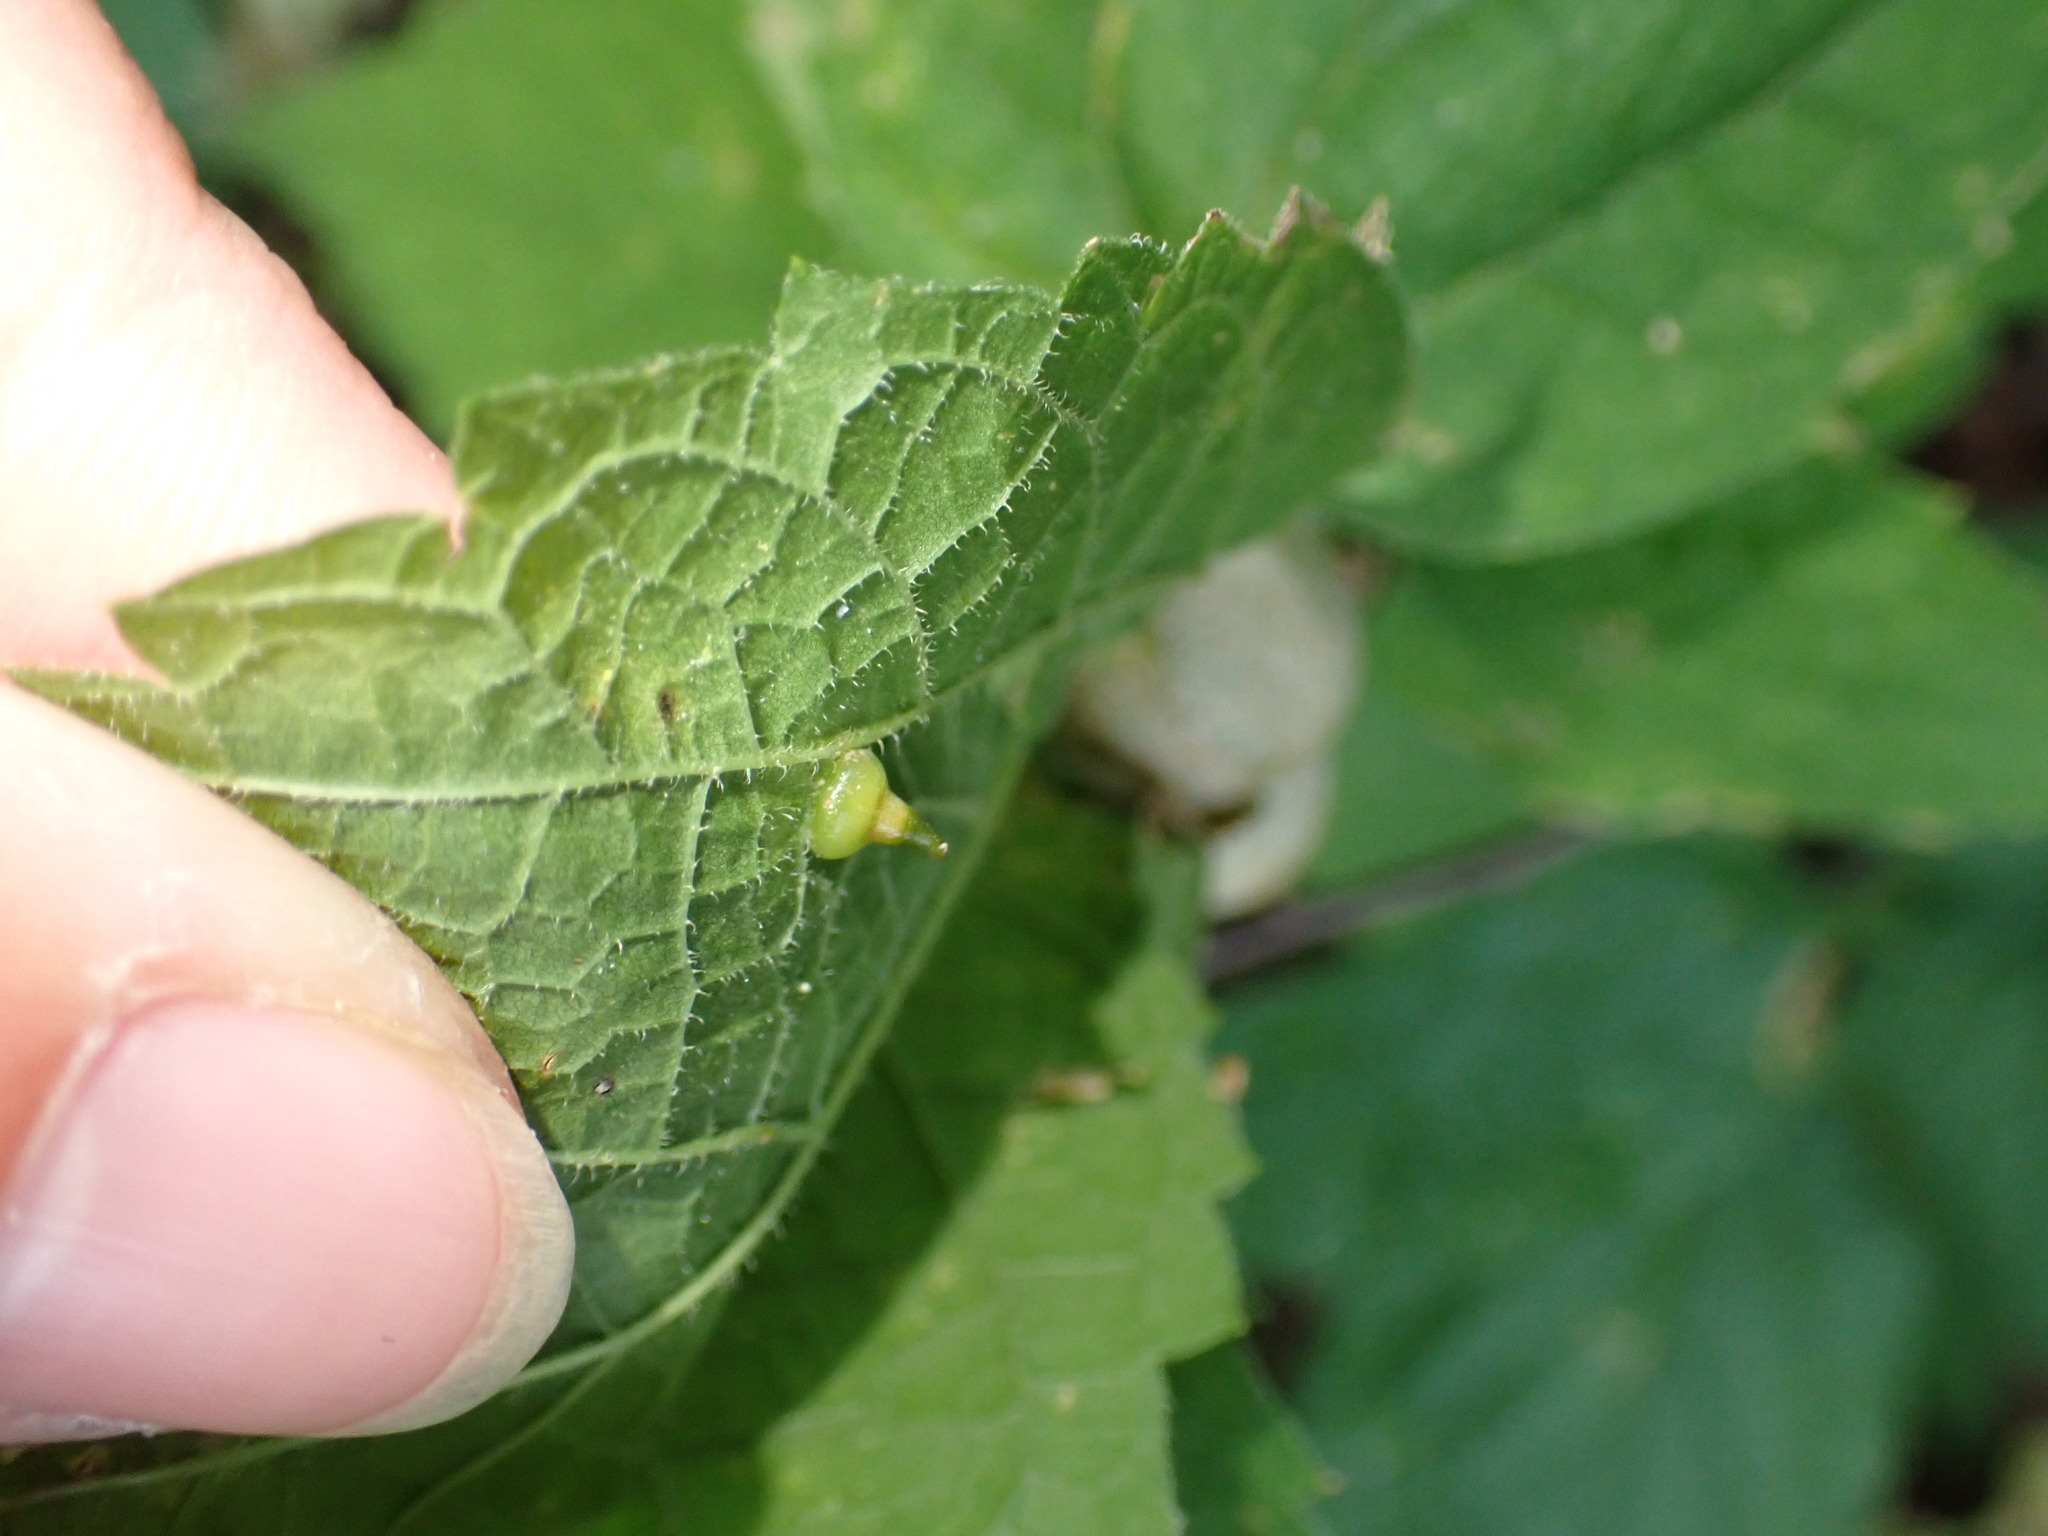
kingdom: Animalia
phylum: Arthropoda
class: Insecta
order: Diptera
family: Cecidomyiidae
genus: Celticecis
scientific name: Celticecis spiniformis
